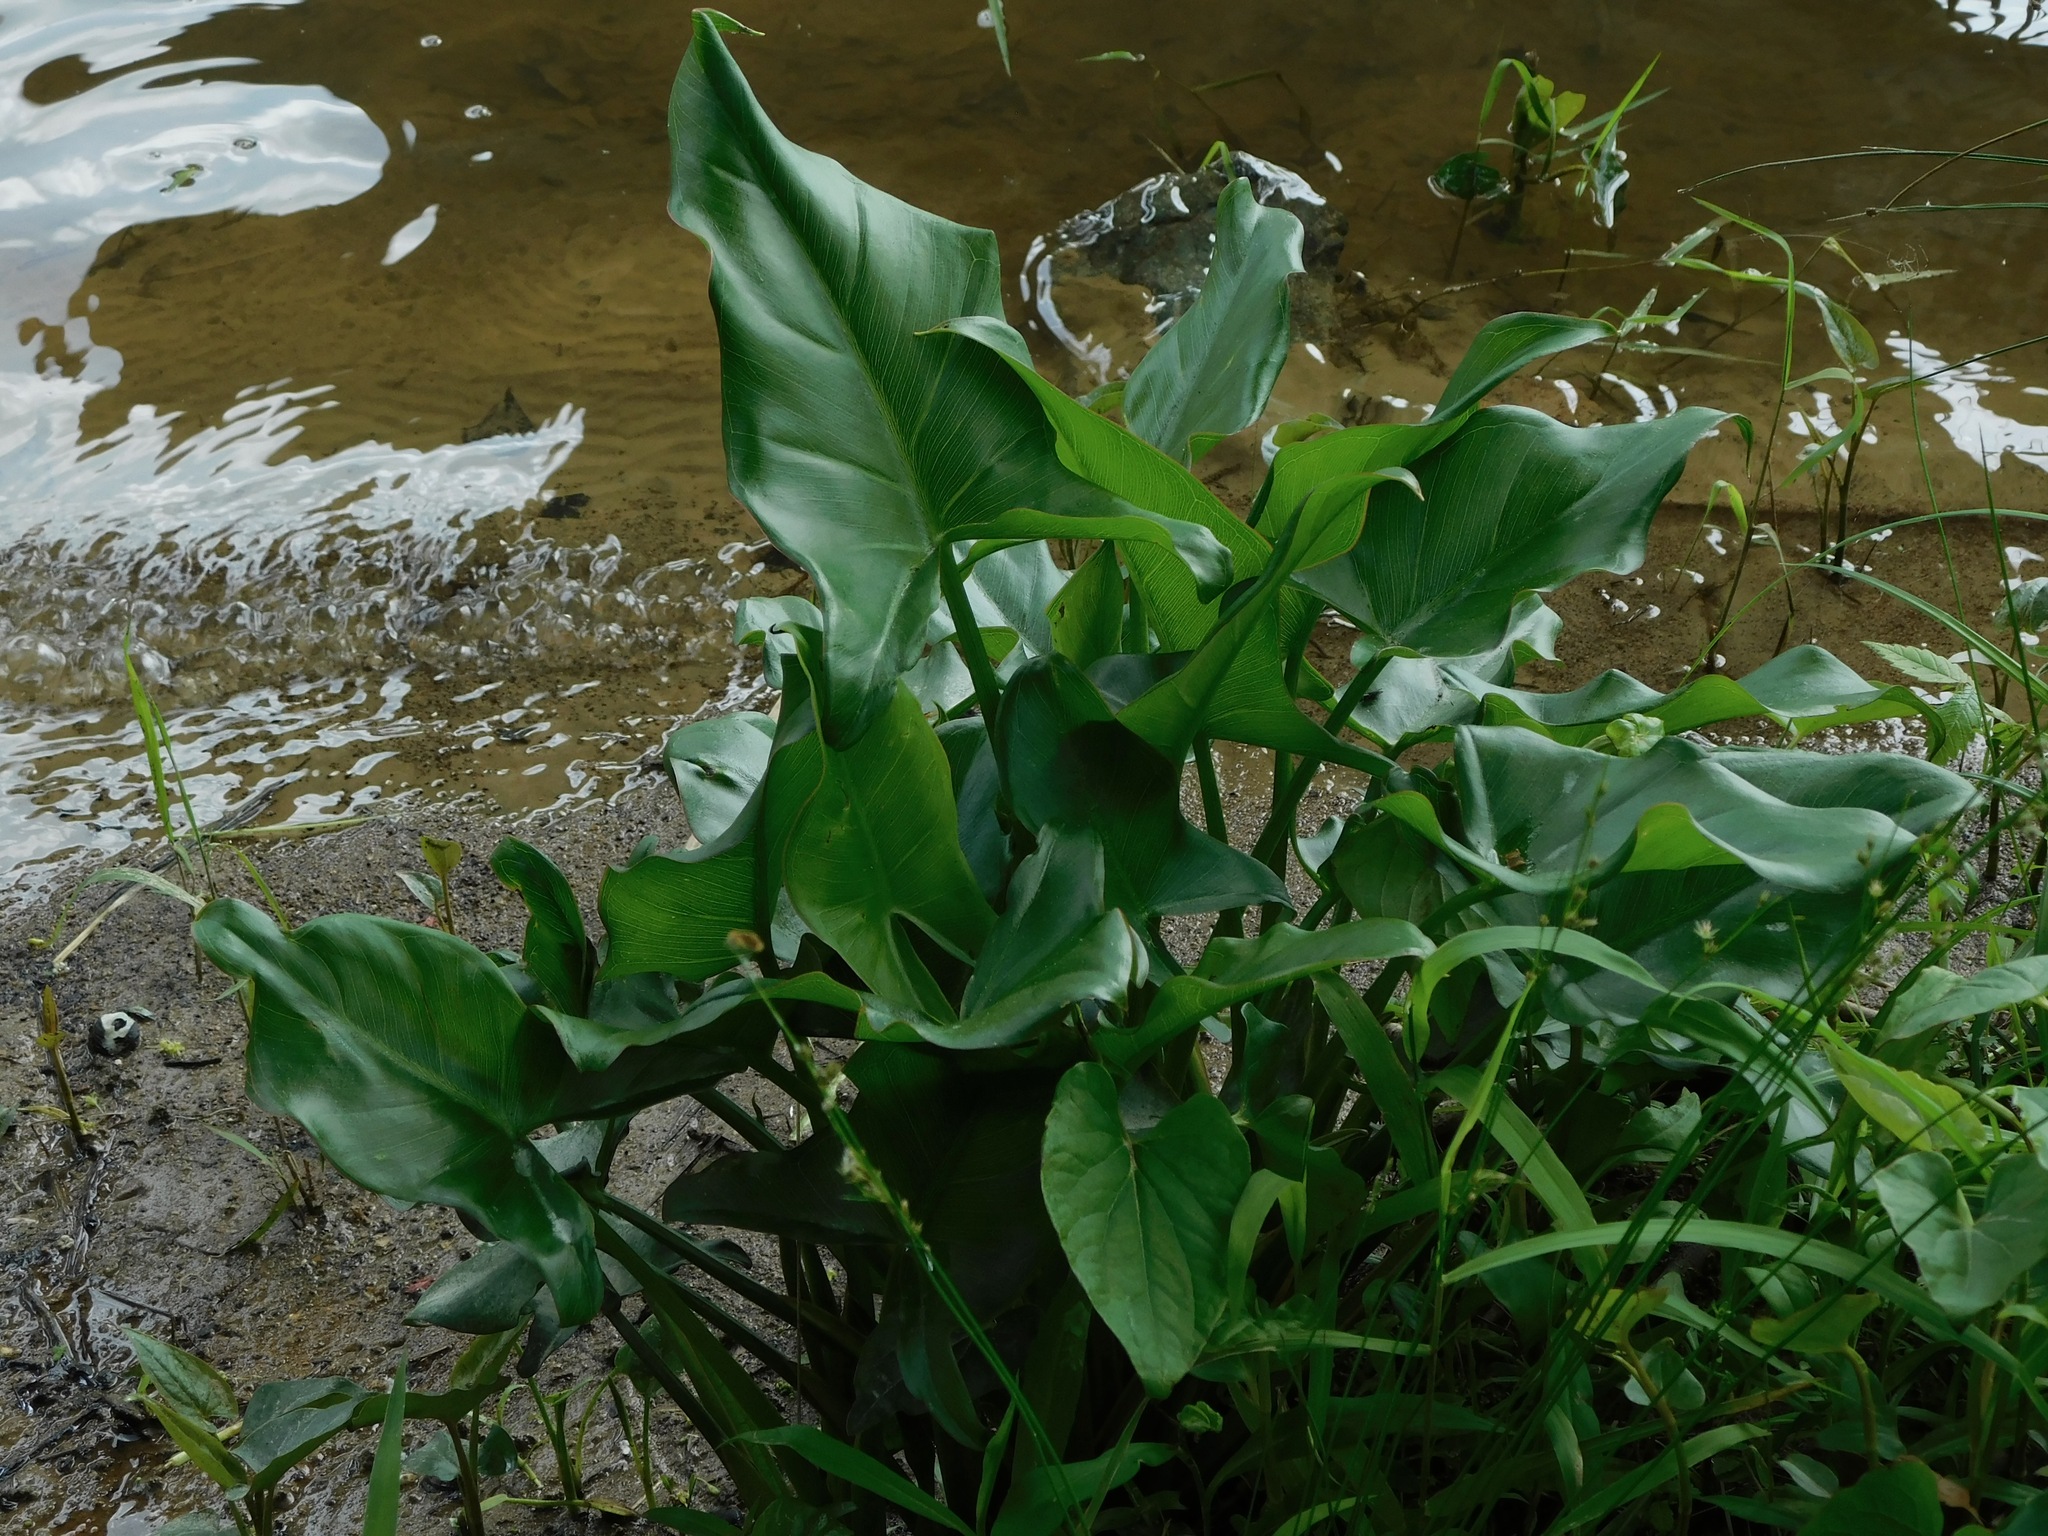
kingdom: Plantae
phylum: Tracheophyta
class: Liliopsida
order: Alismatales
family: Araceae
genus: Peltandra
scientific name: Peltandra virginica
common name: Arrow arum
